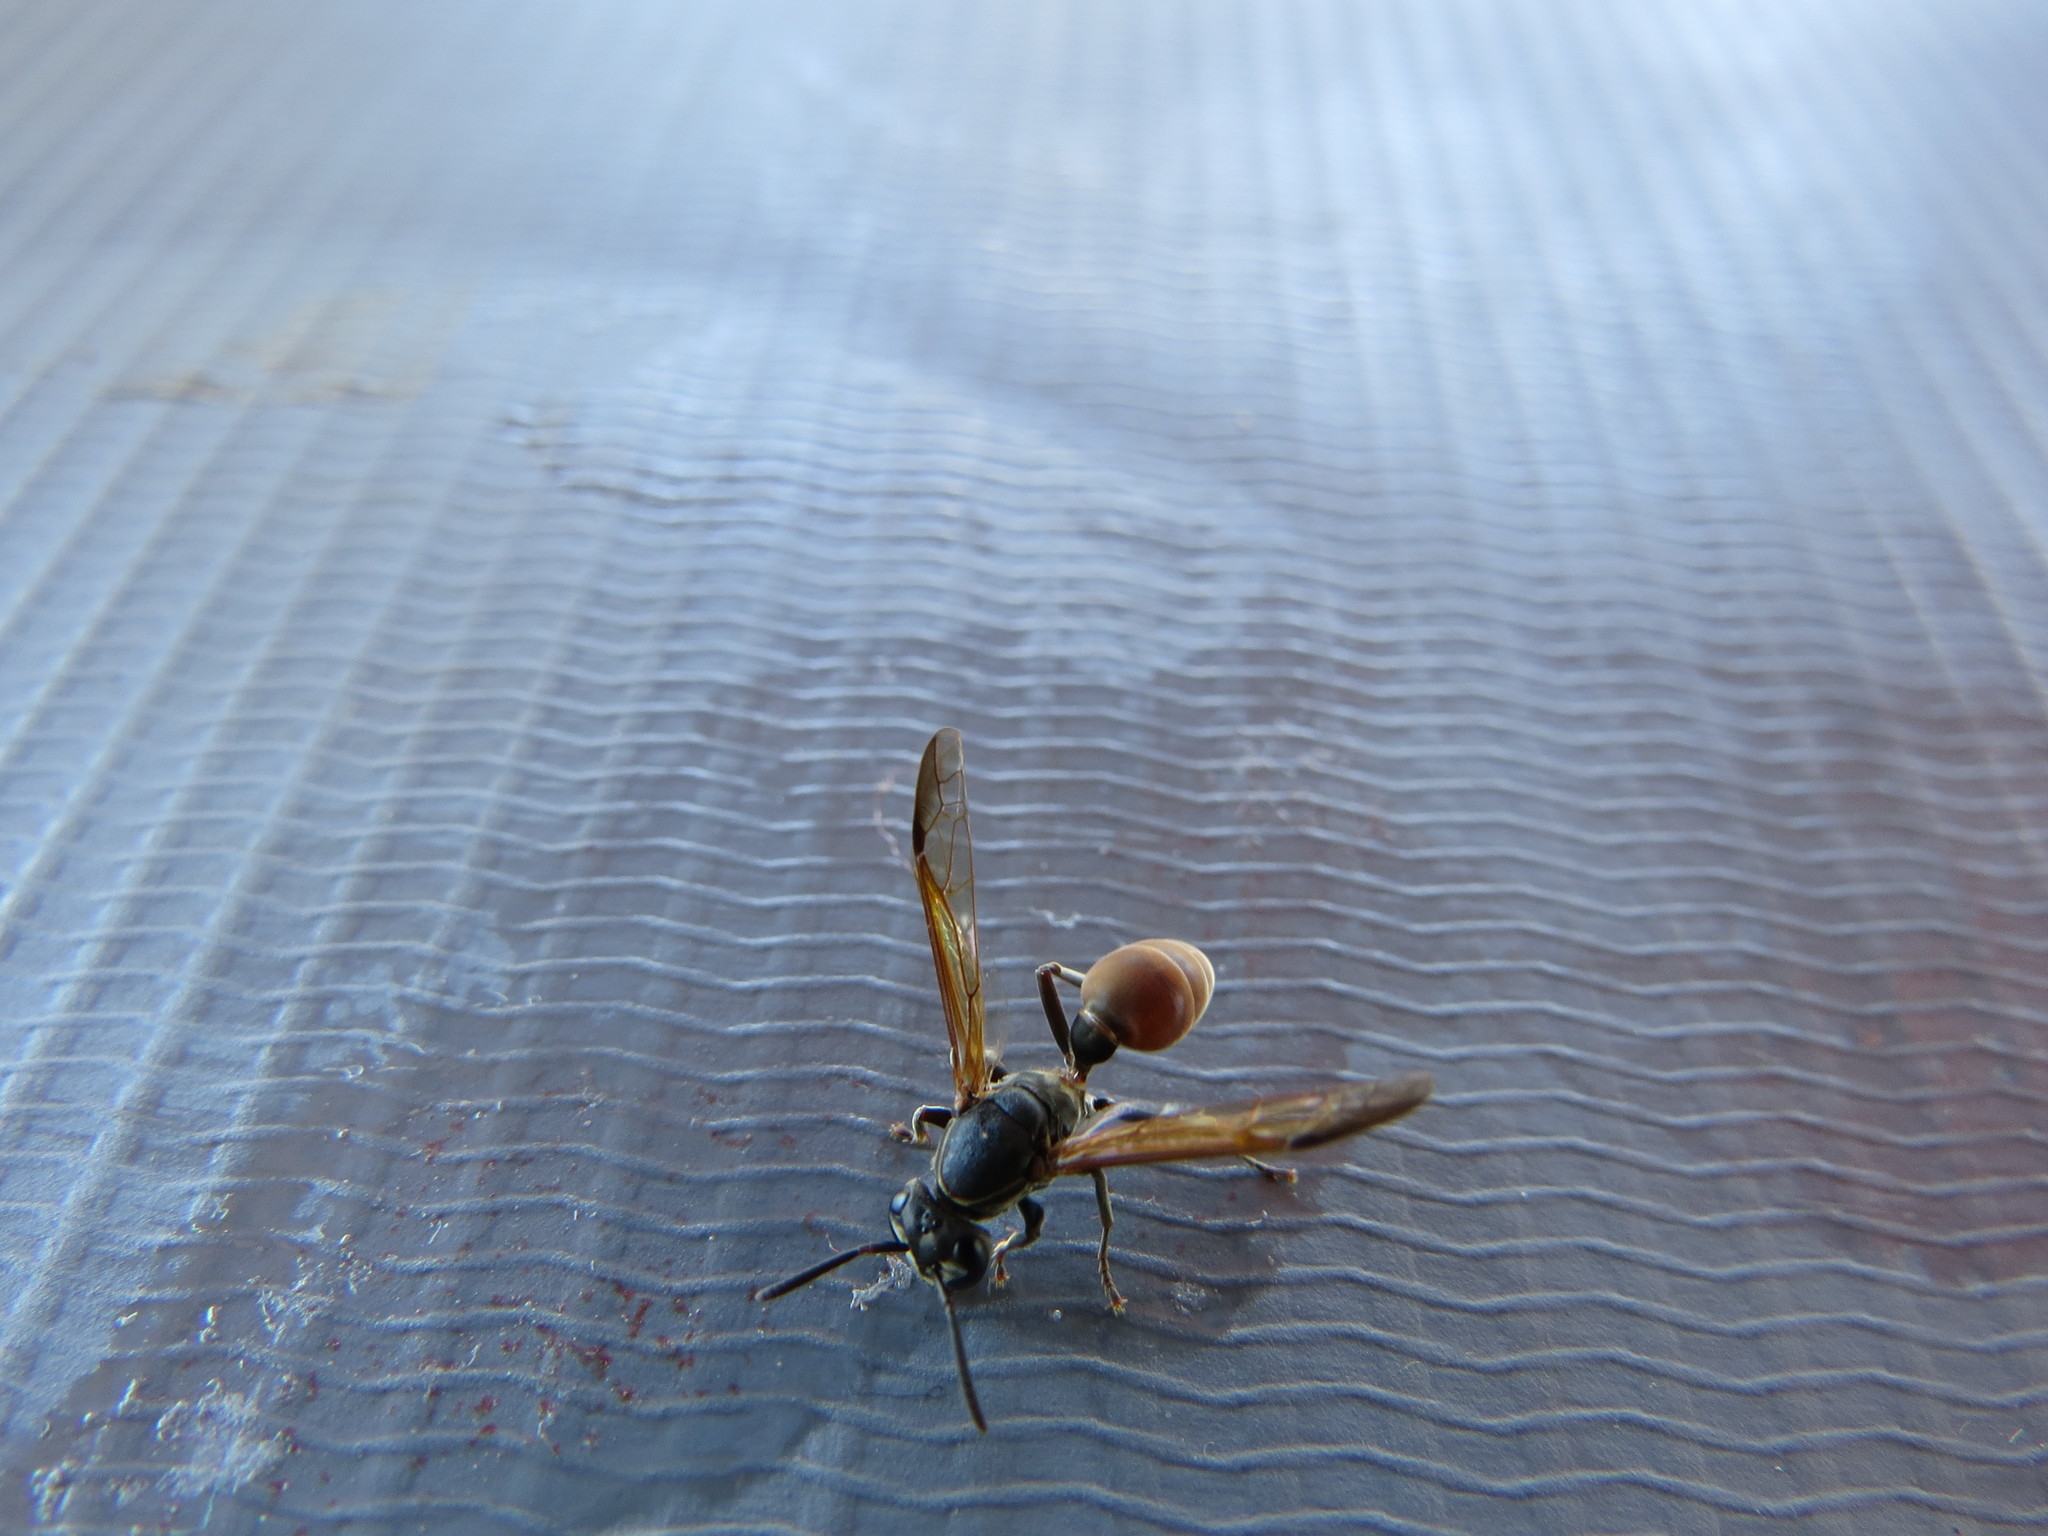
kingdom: Animalia
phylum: Arthropoda
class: Insecta
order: Hymenoptera
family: Eumenidae
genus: Polybia
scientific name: Polybia dimidiata
